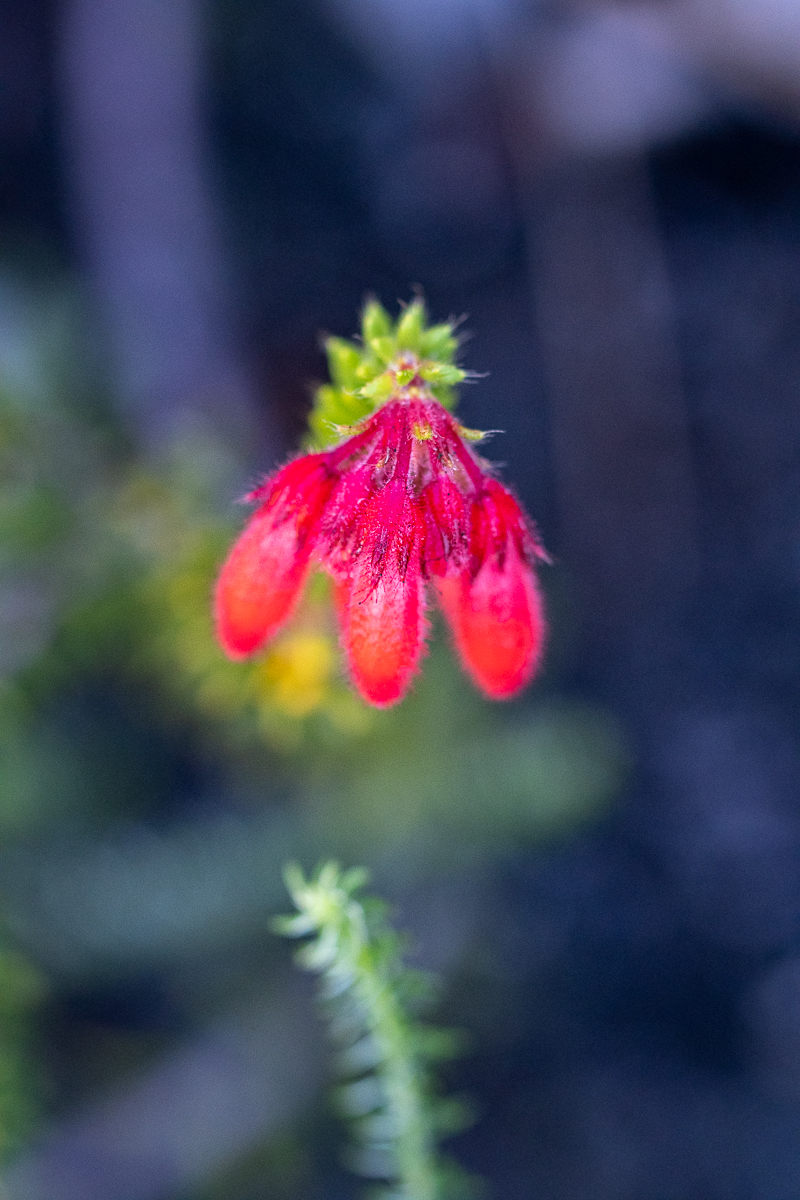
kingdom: Plantae
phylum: Tracheophyta
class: Magnoliopsida
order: Ericales
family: Ericaceae
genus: Erica
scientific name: Erica cerinthoides
